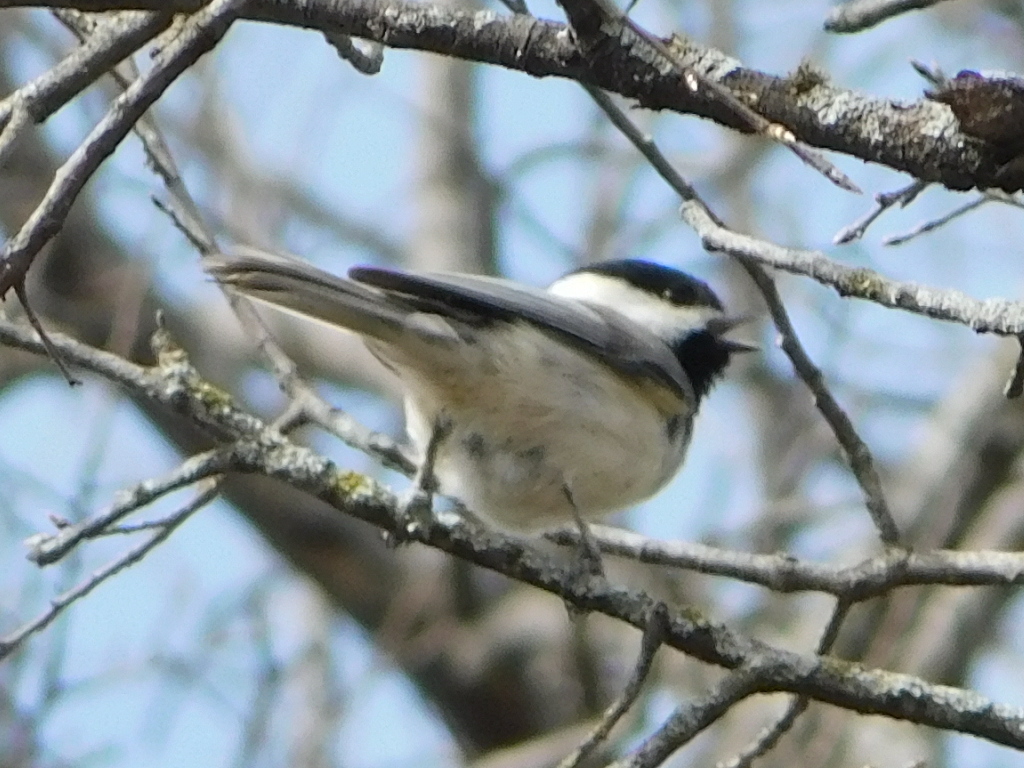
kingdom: Animalia
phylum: Chordata
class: Aves
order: Passeriformes
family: Paridae
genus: Poecile
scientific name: Poecile carolinensis
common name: Carolina chickadee
